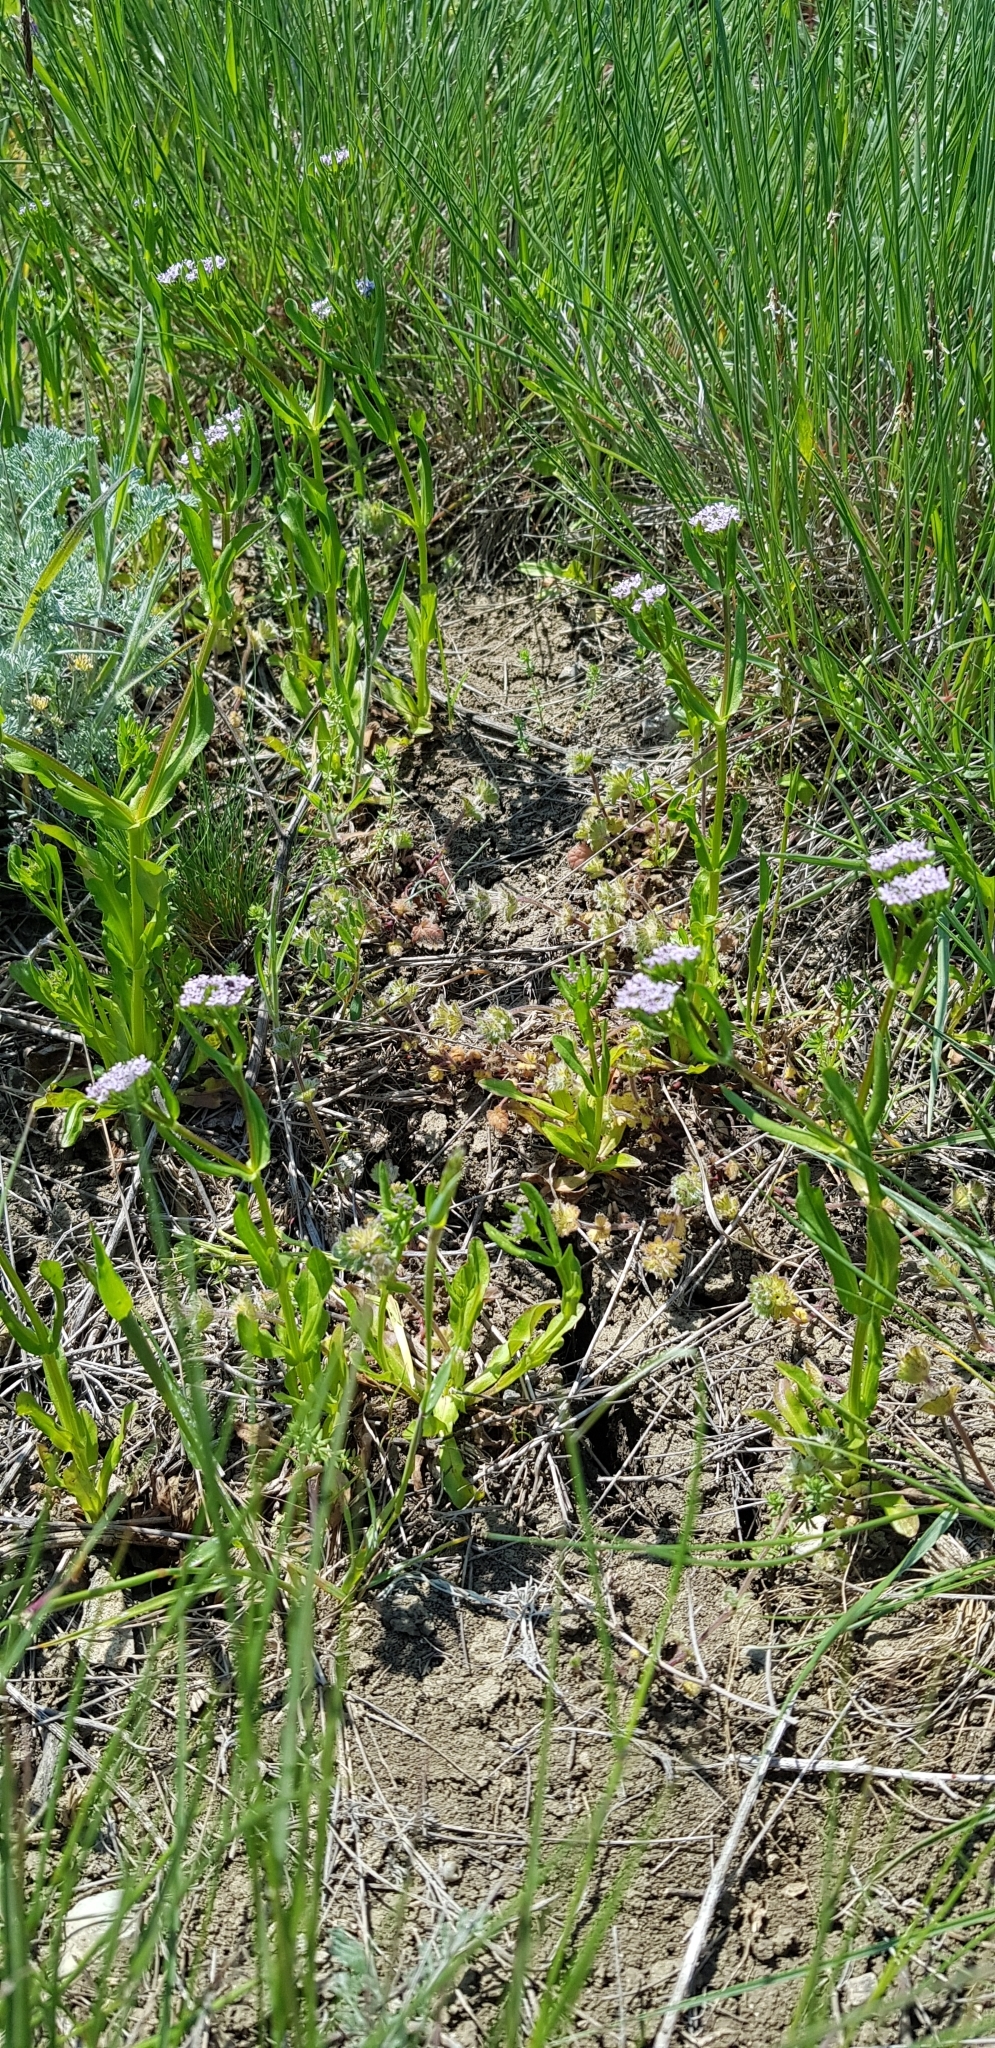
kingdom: Plantae
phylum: Tracheophyta
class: Magnoliopsida
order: Dipsacales
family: Caprifoliaceae
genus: Valerianella
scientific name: Valerianella
